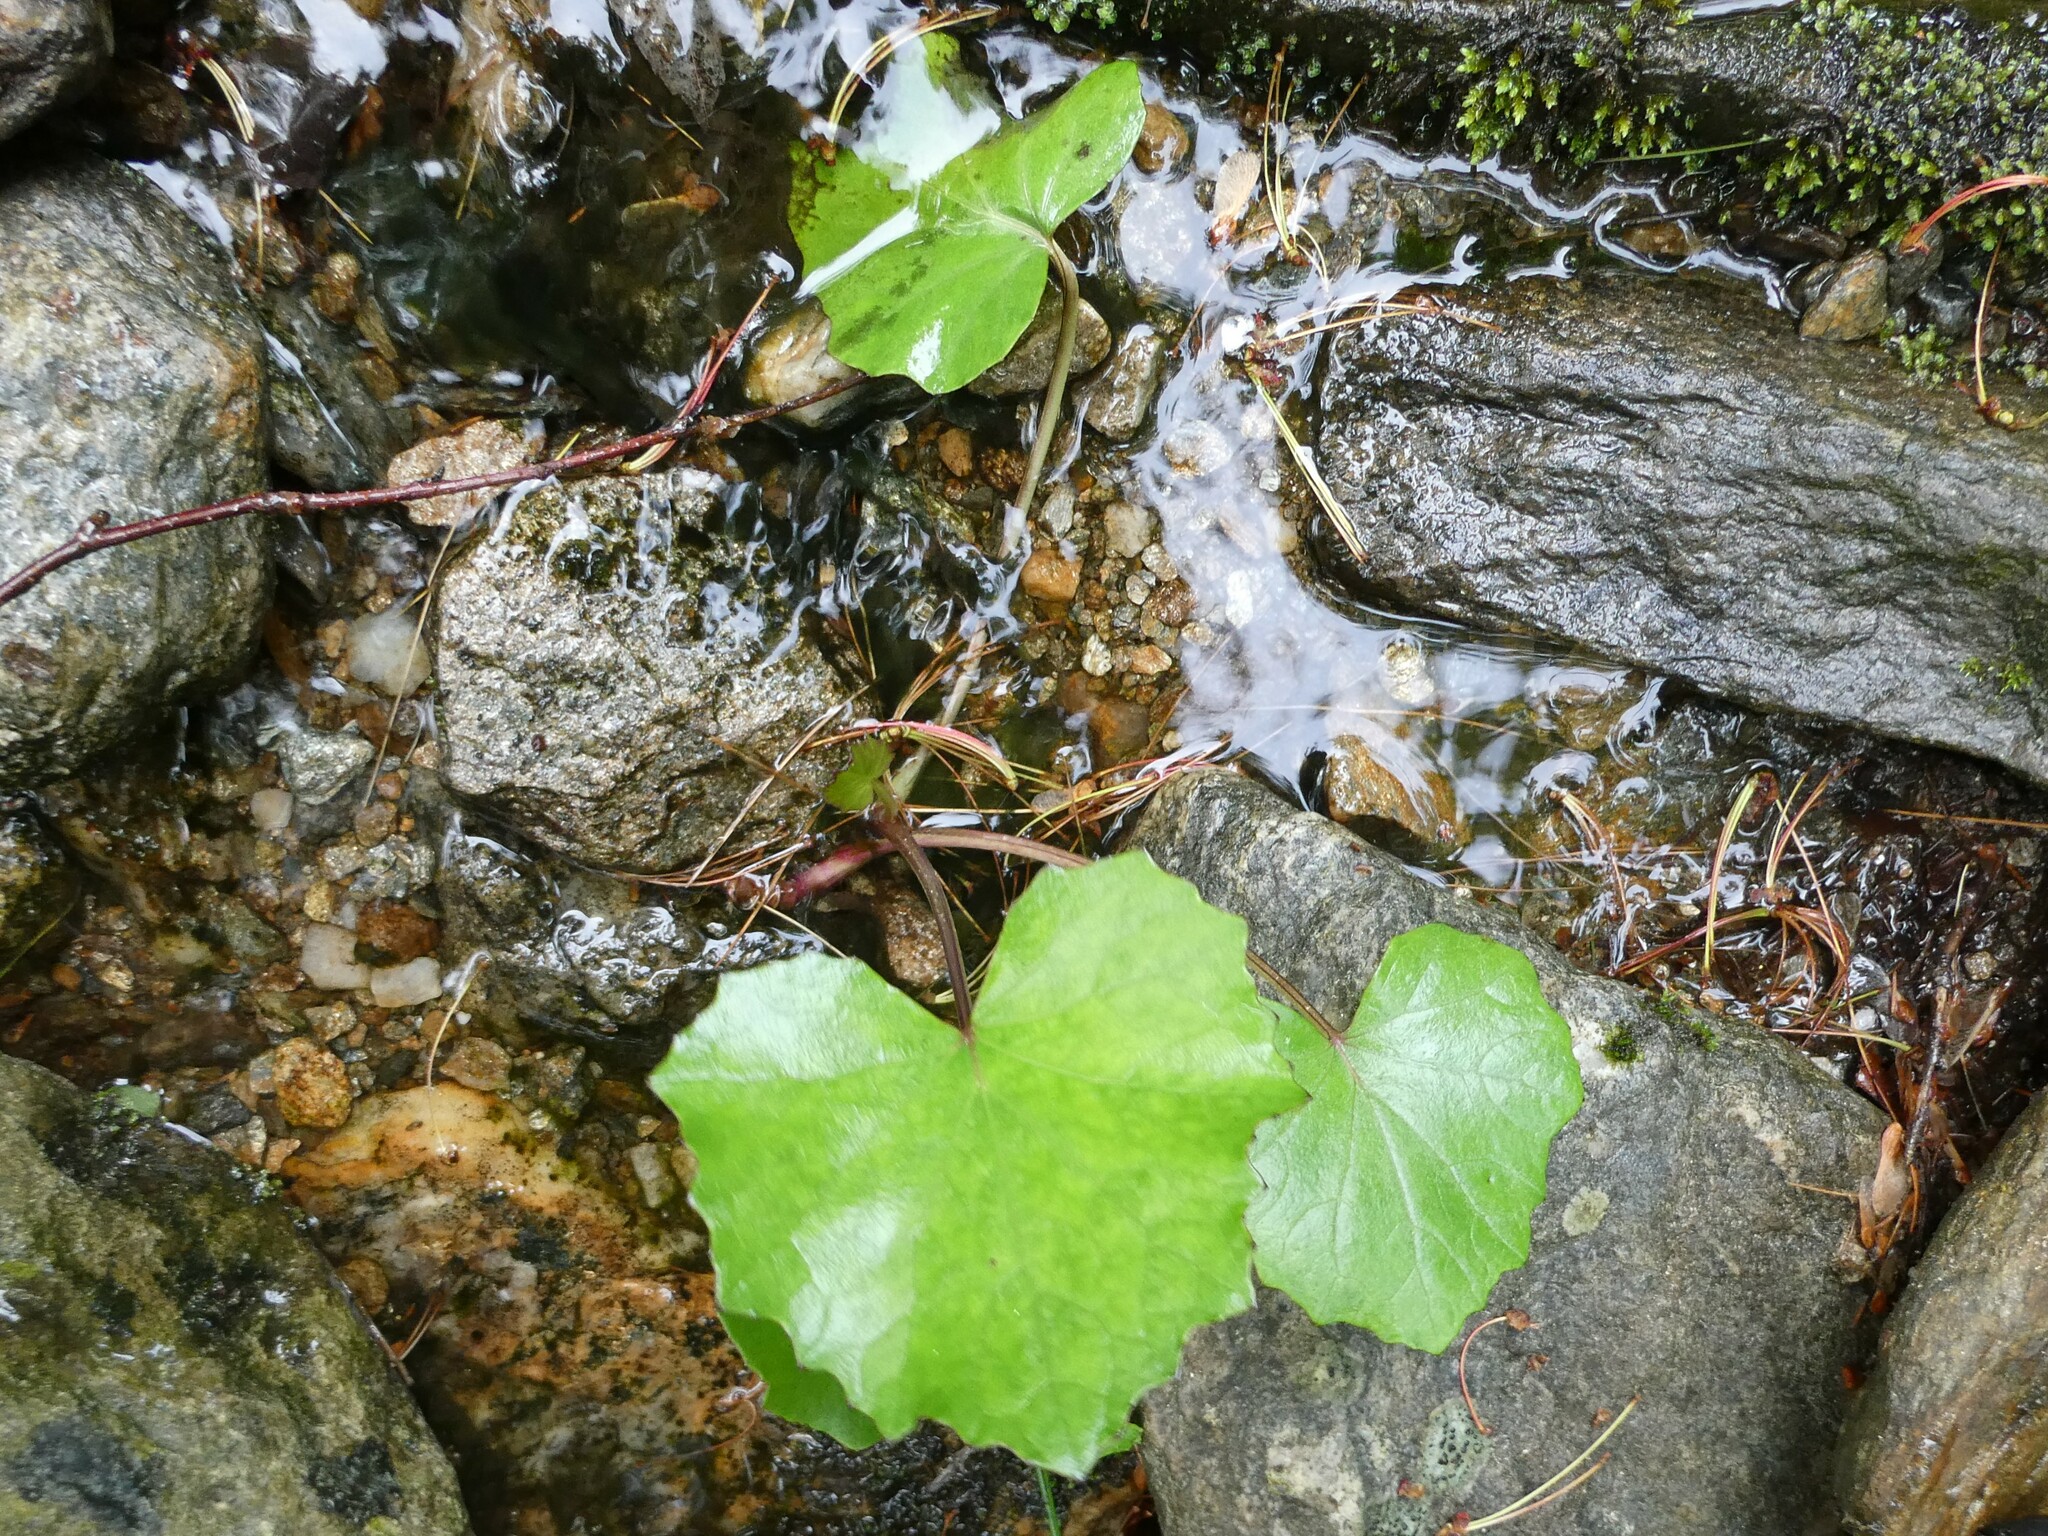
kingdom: Plantae
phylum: Tracheophyta
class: Magnoliopsida
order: Asterales
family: Asteraceae
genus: Tussilago
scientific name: Tussilago farfara
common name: Coltsfoot
